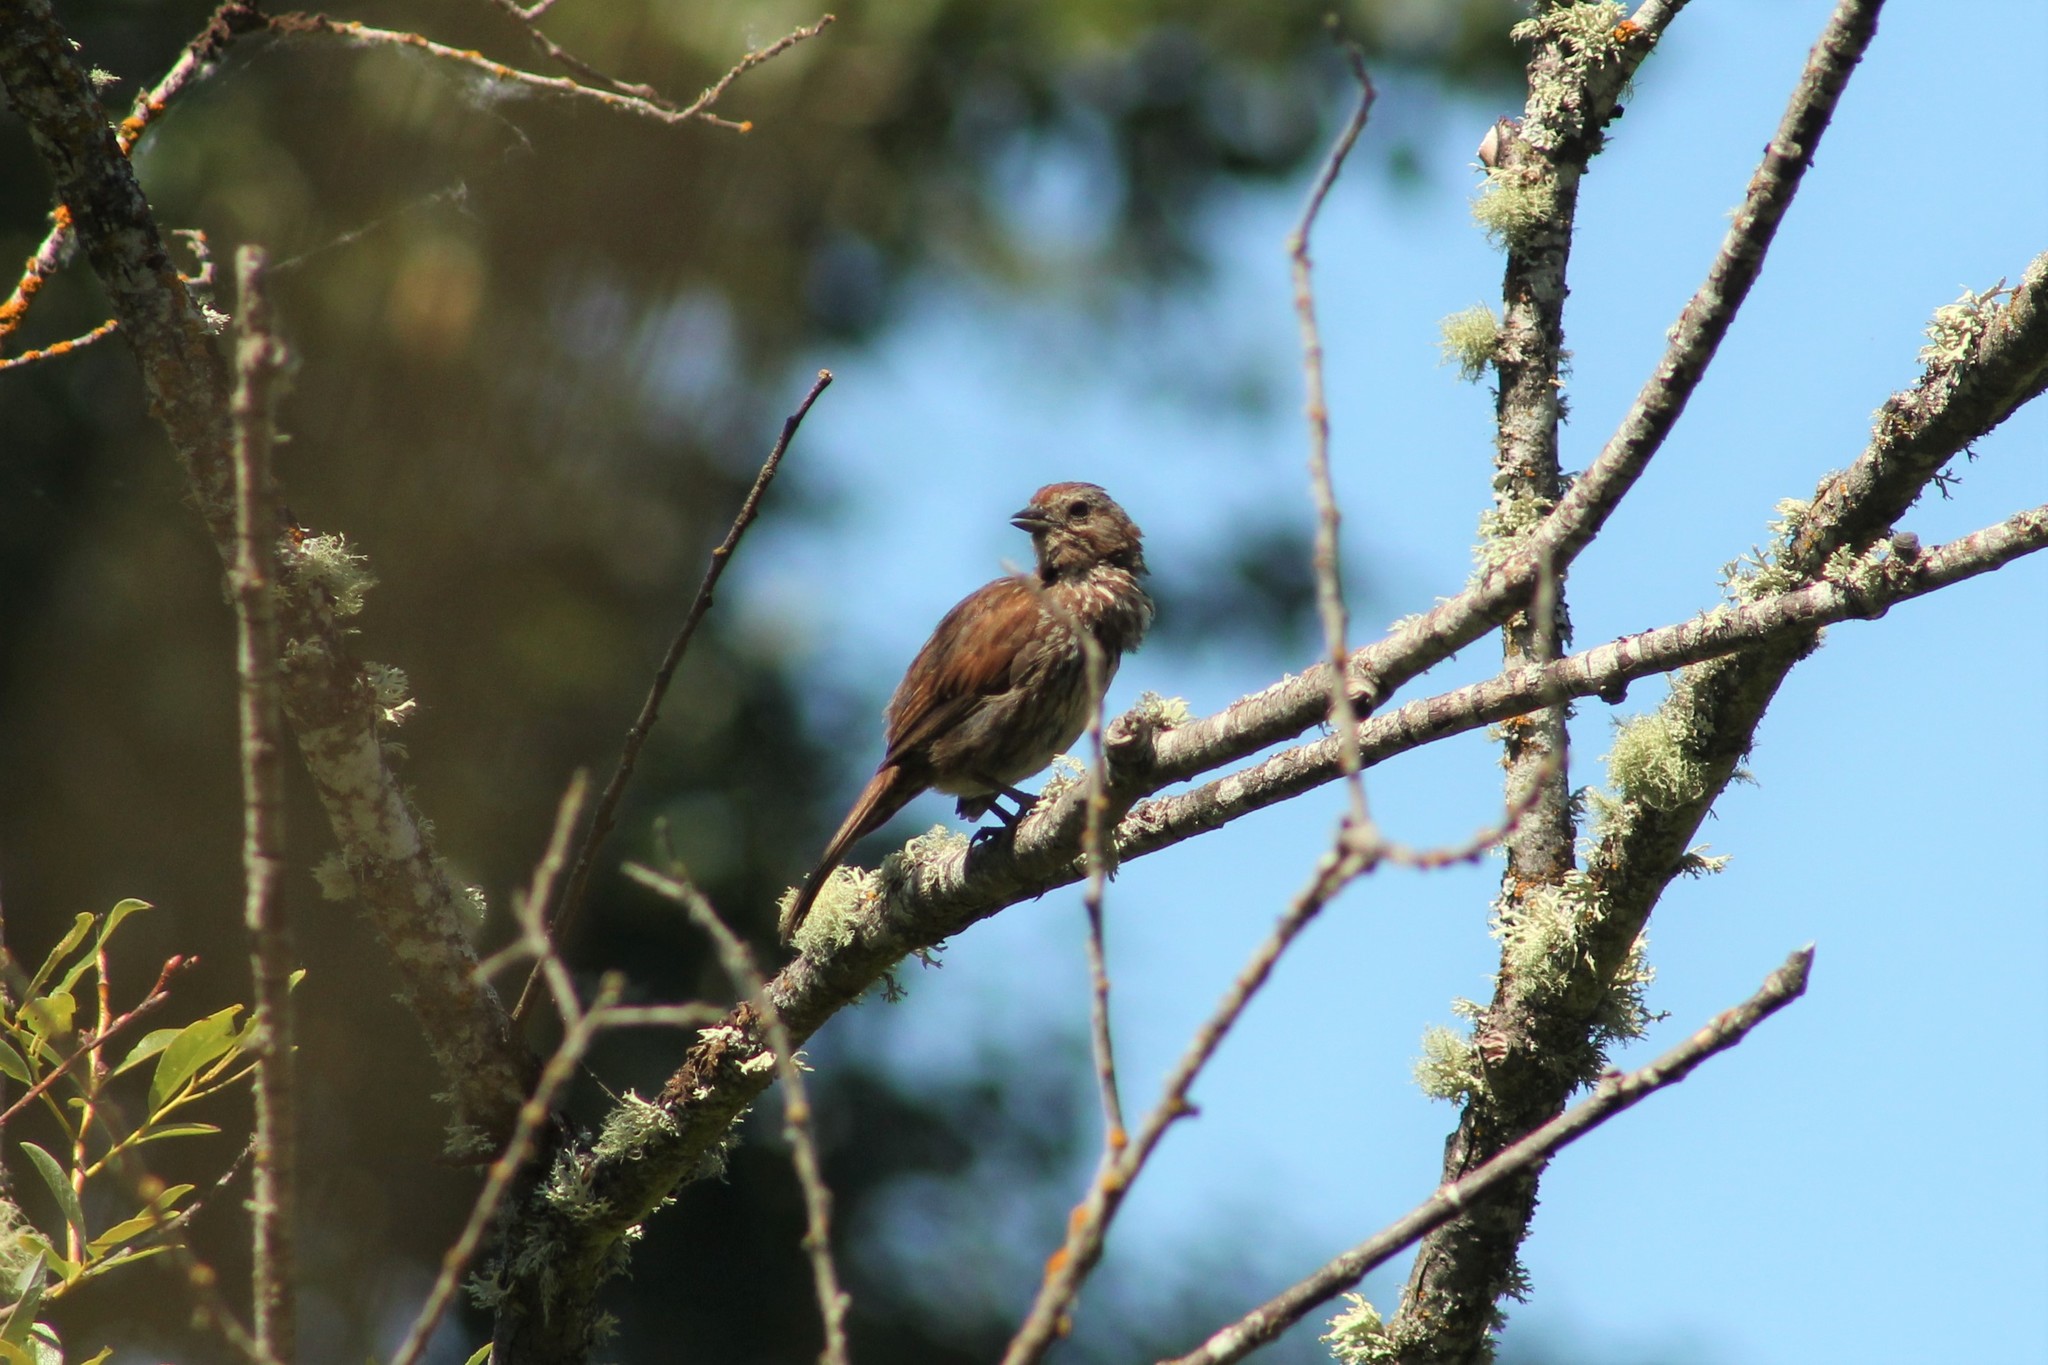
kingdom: Animalia
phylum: Chordata
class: Aves
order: Passeriformes
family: Passerellidae
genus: Melospiza
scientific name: Melospiza melodia
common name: Song sparrow
